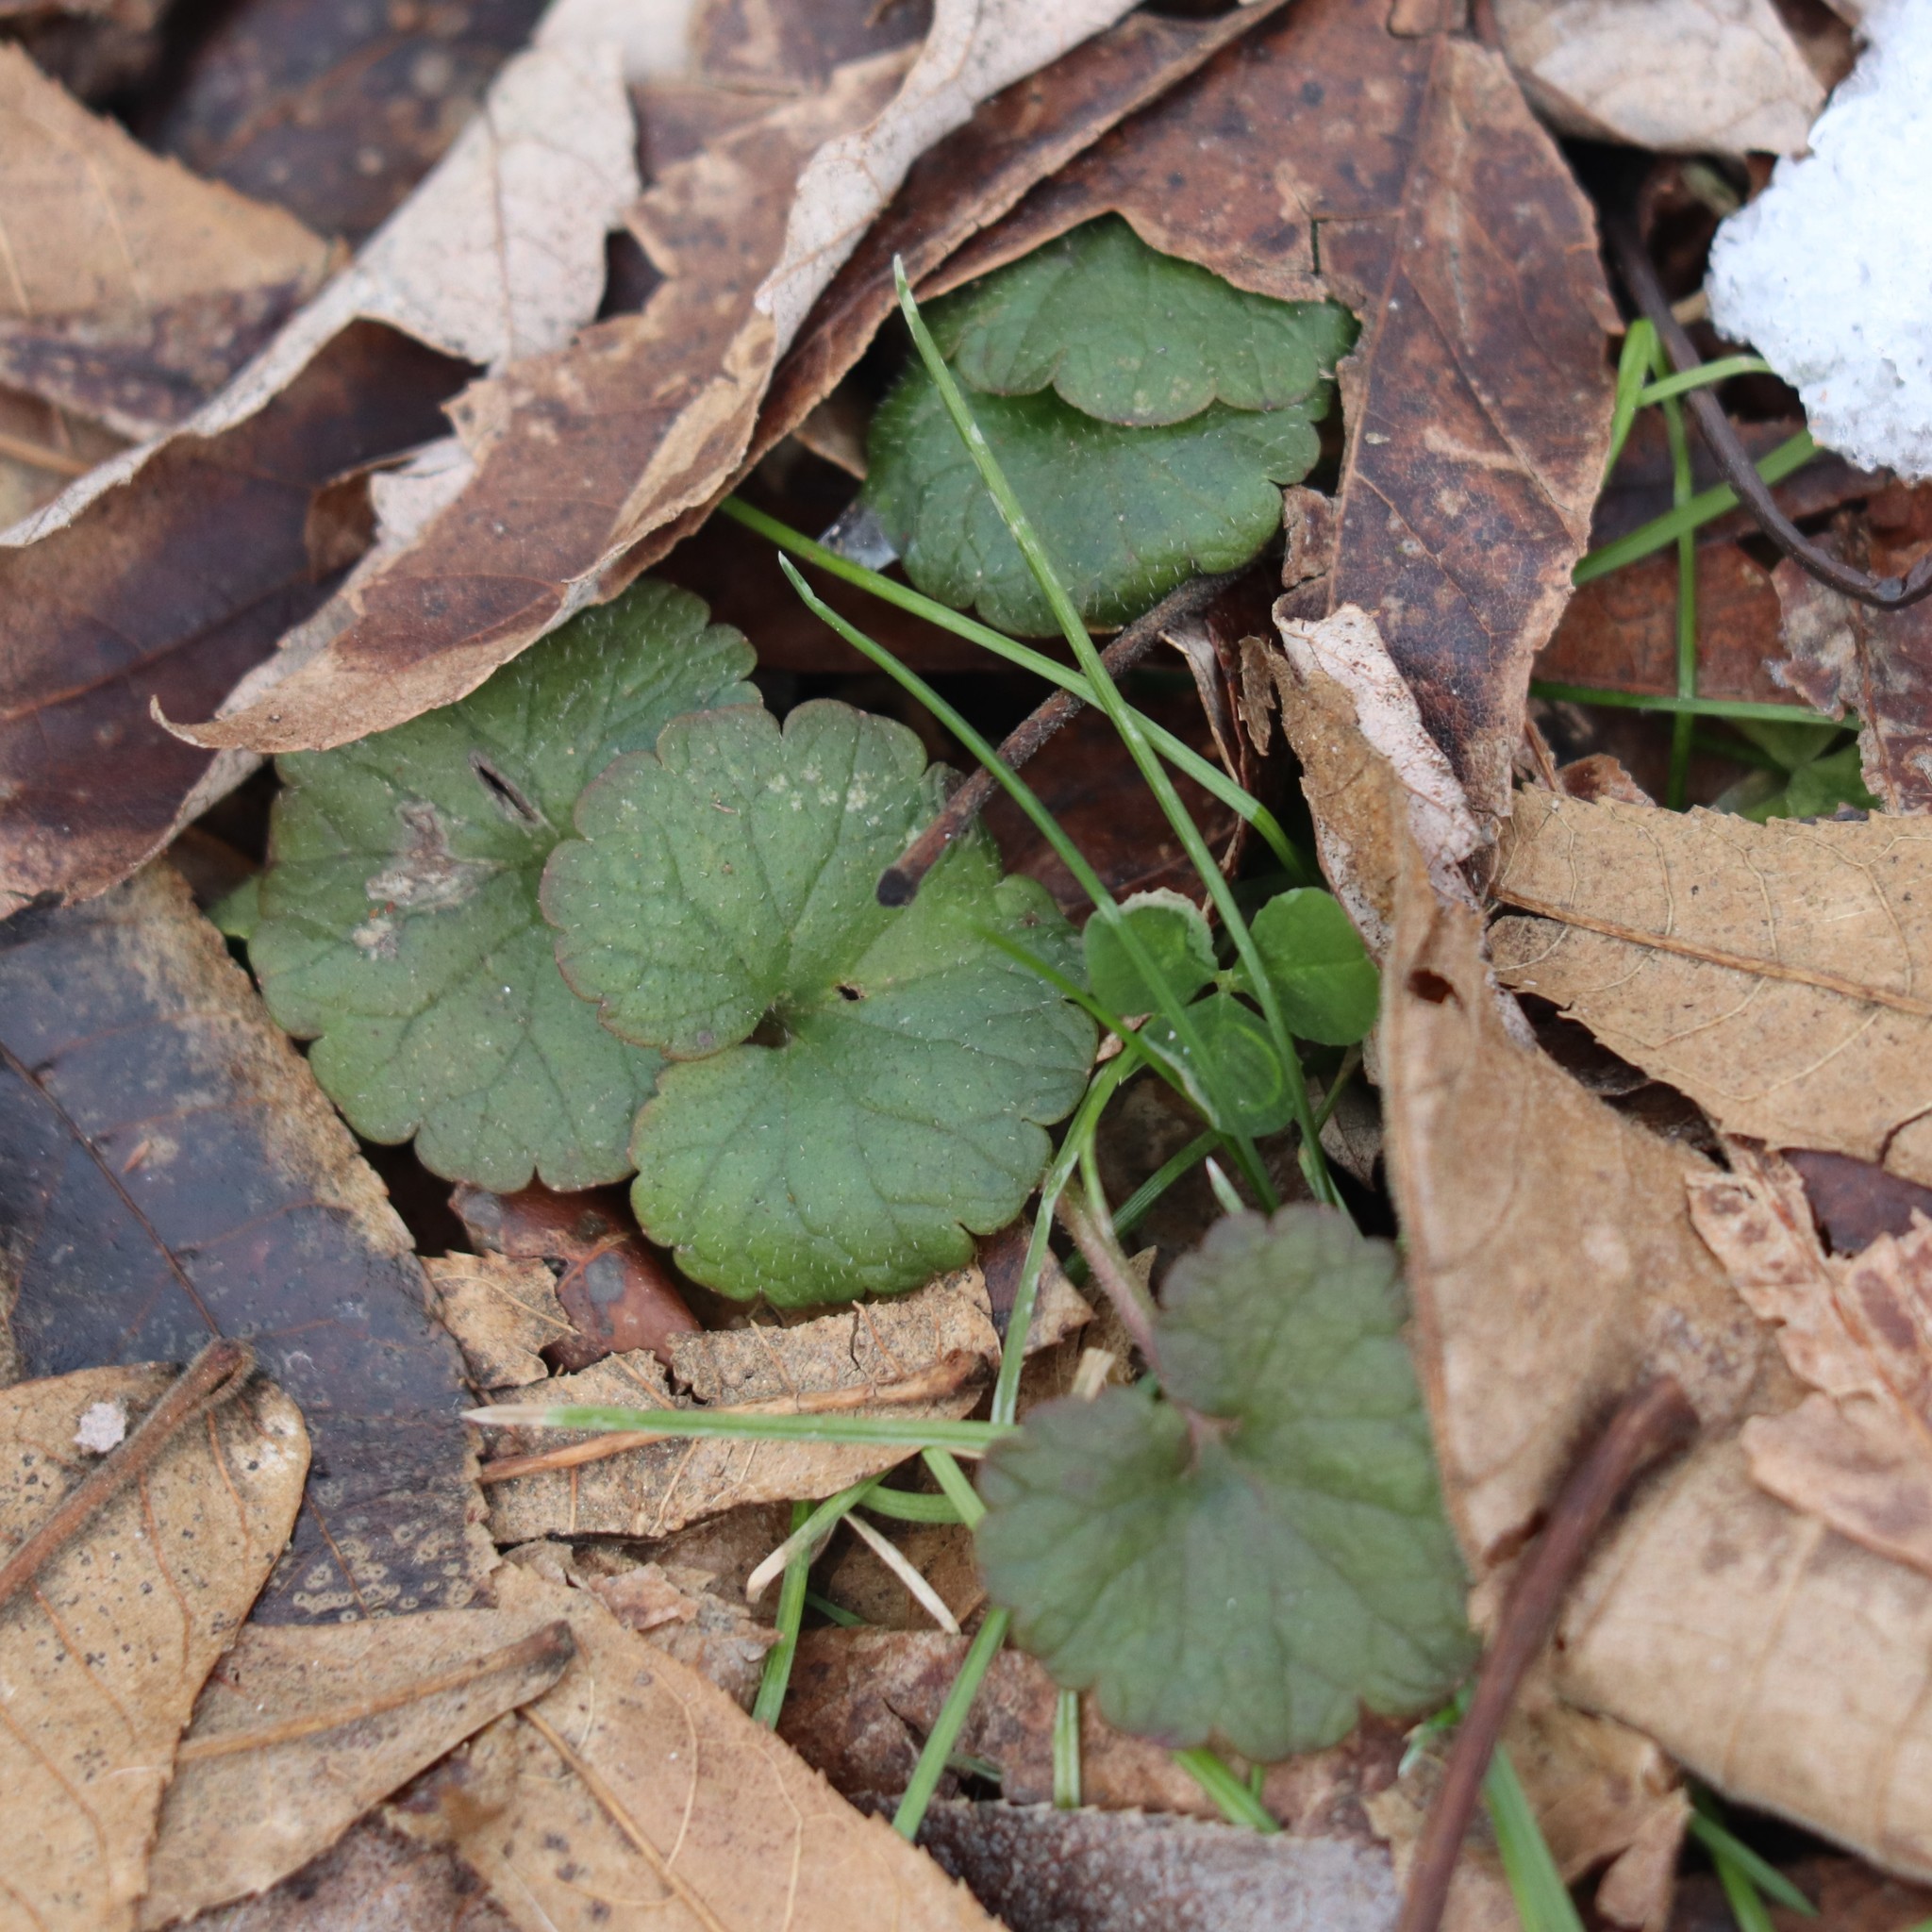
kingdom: Plantae
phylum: Tracheophyta
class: Magnoliopsida
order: Lamiales
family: Lamiaceae
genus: Glechoma
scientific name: Glechoma hederacea
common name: Ground ivy
